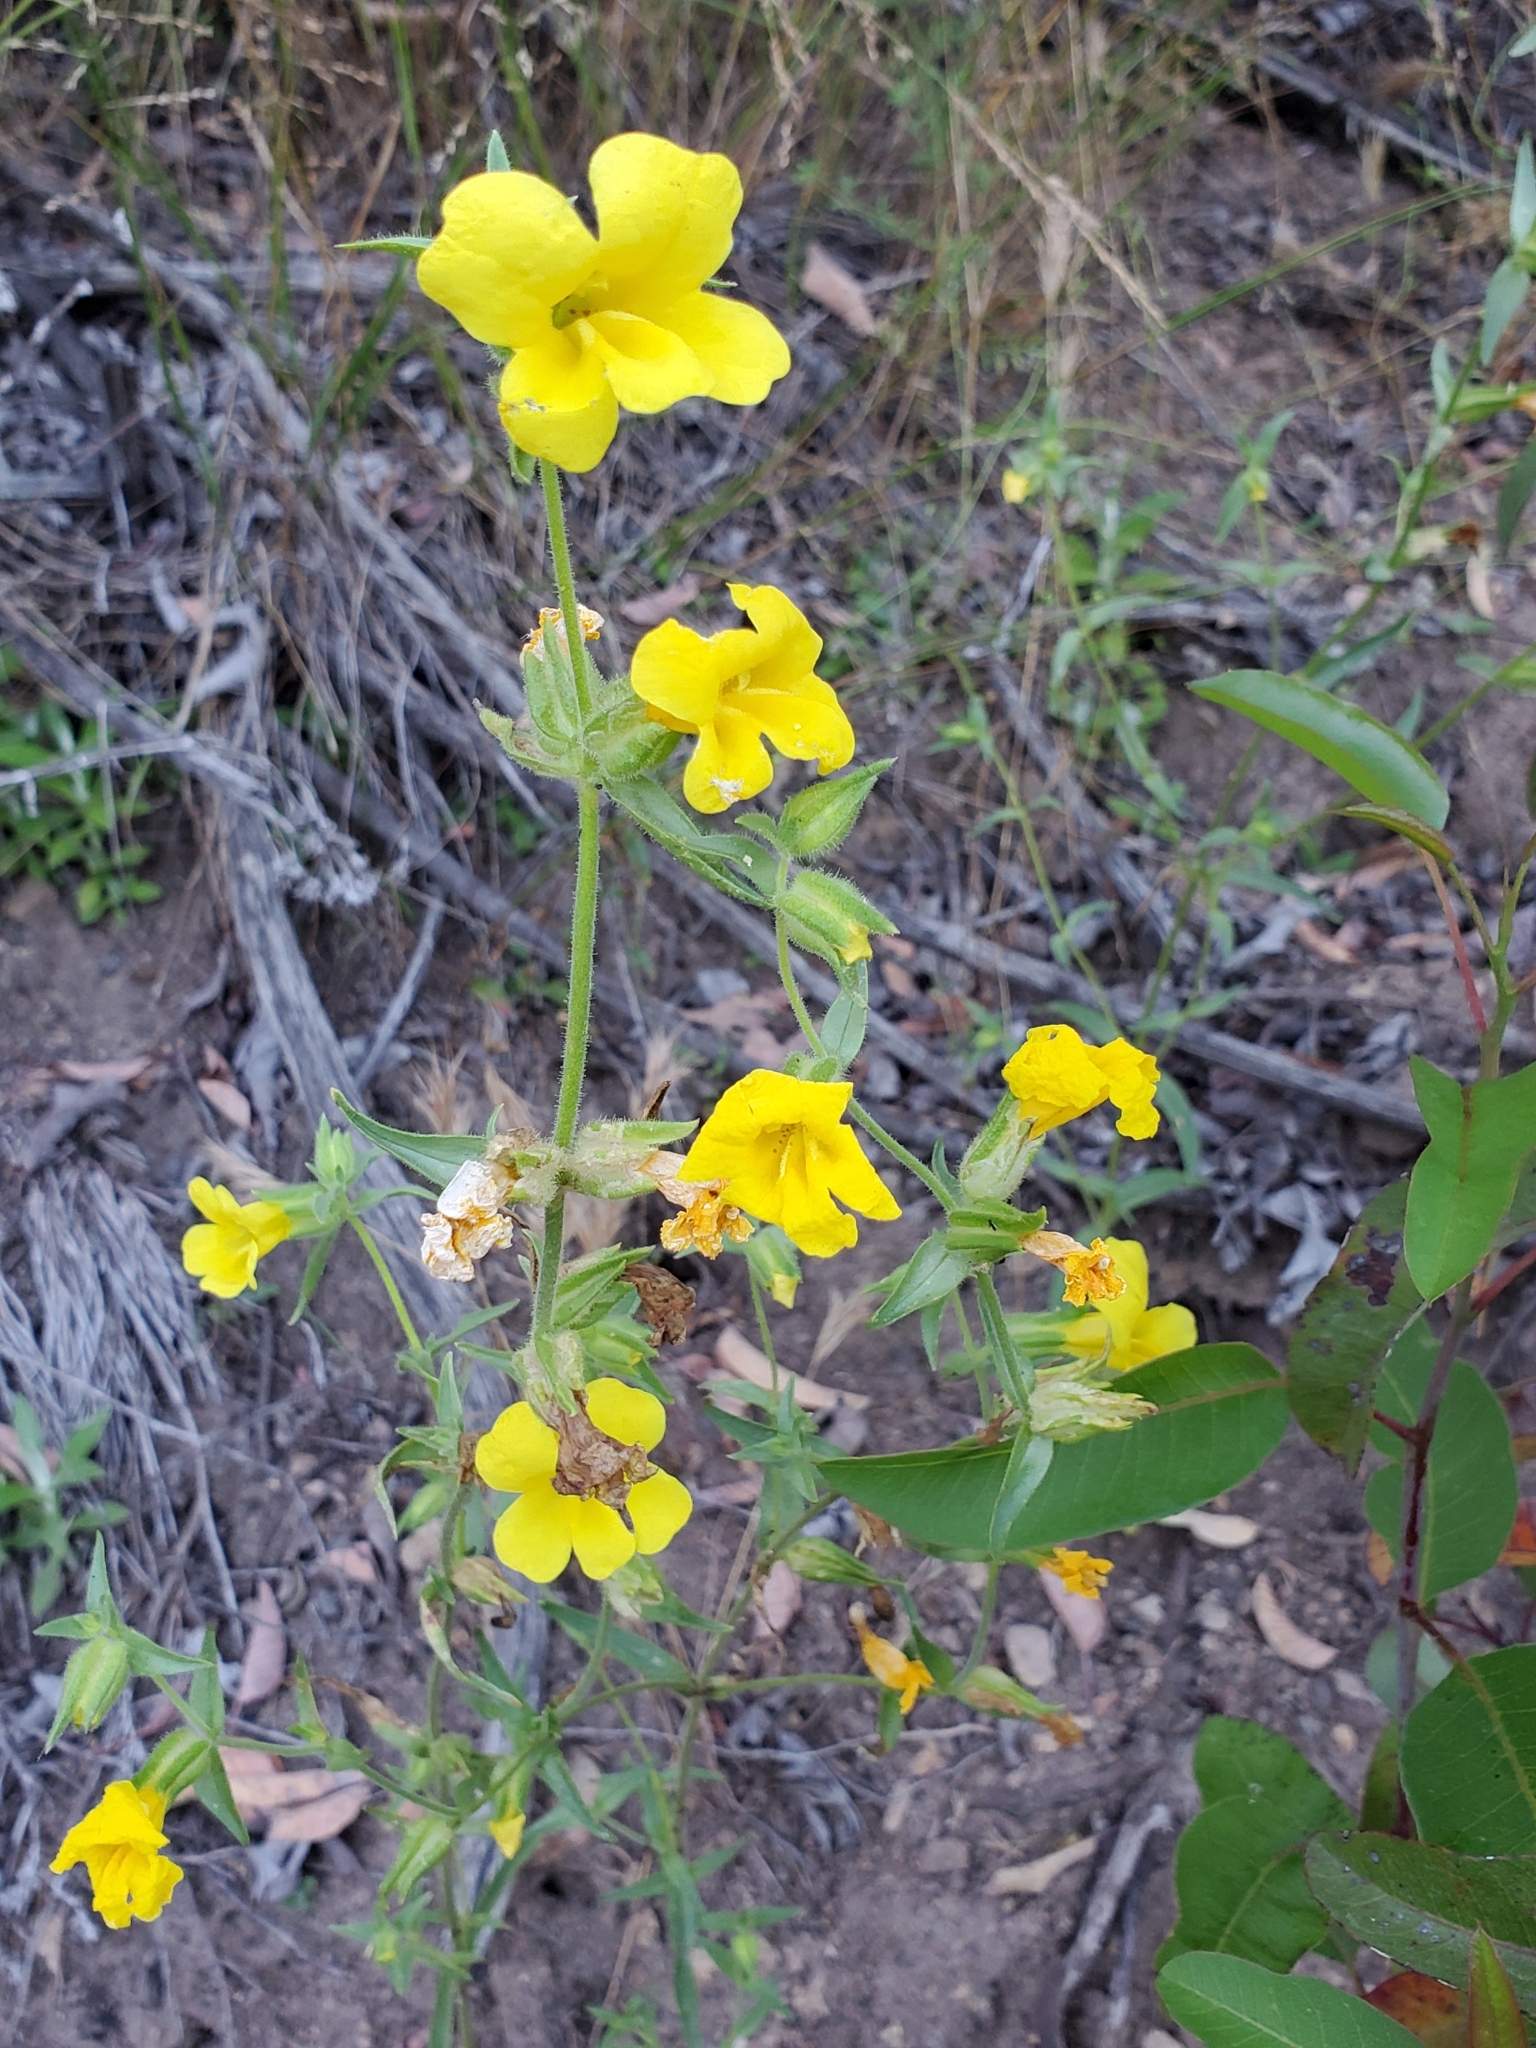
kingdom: Plantae
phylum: Tracheophyta
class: Magnoliopsida
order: Lamiales
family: Phrymaceae
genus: Diplacus
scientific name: Diplacus brevipes
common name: Wide-throat yellow monkey-flower
